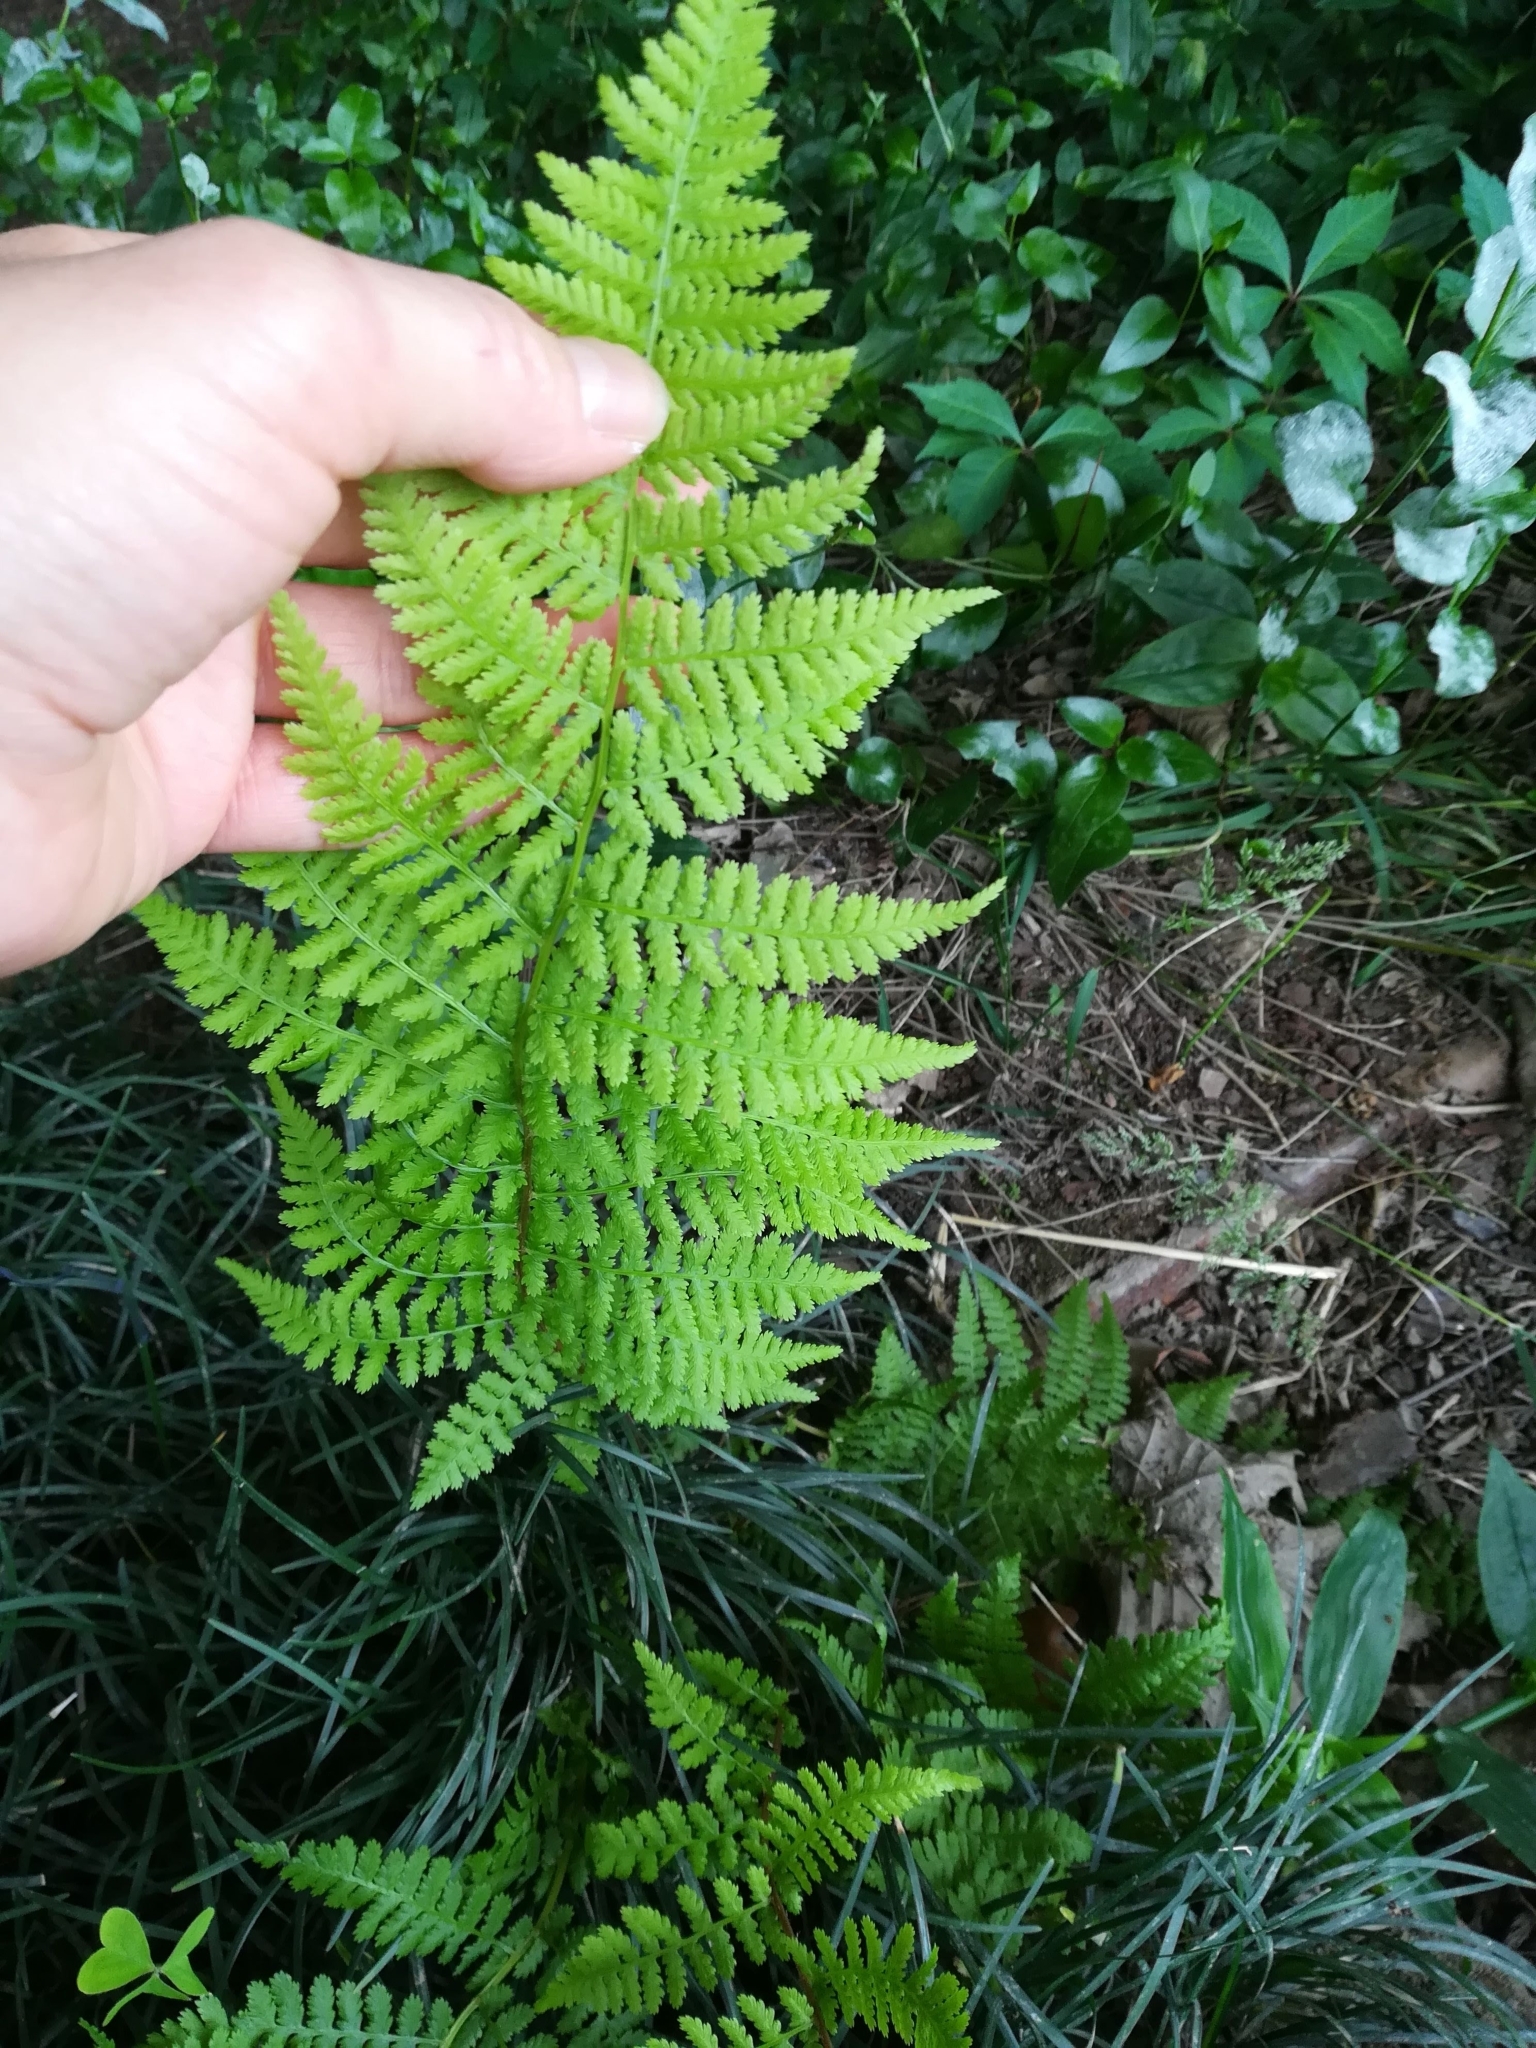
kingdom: Plantae
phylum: Tracheophyta
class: Polypodiopsida
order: Polypodiales
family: Athyriaceae
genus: Athyrium
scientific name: Athyrium filix-femina
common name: Lady fern
